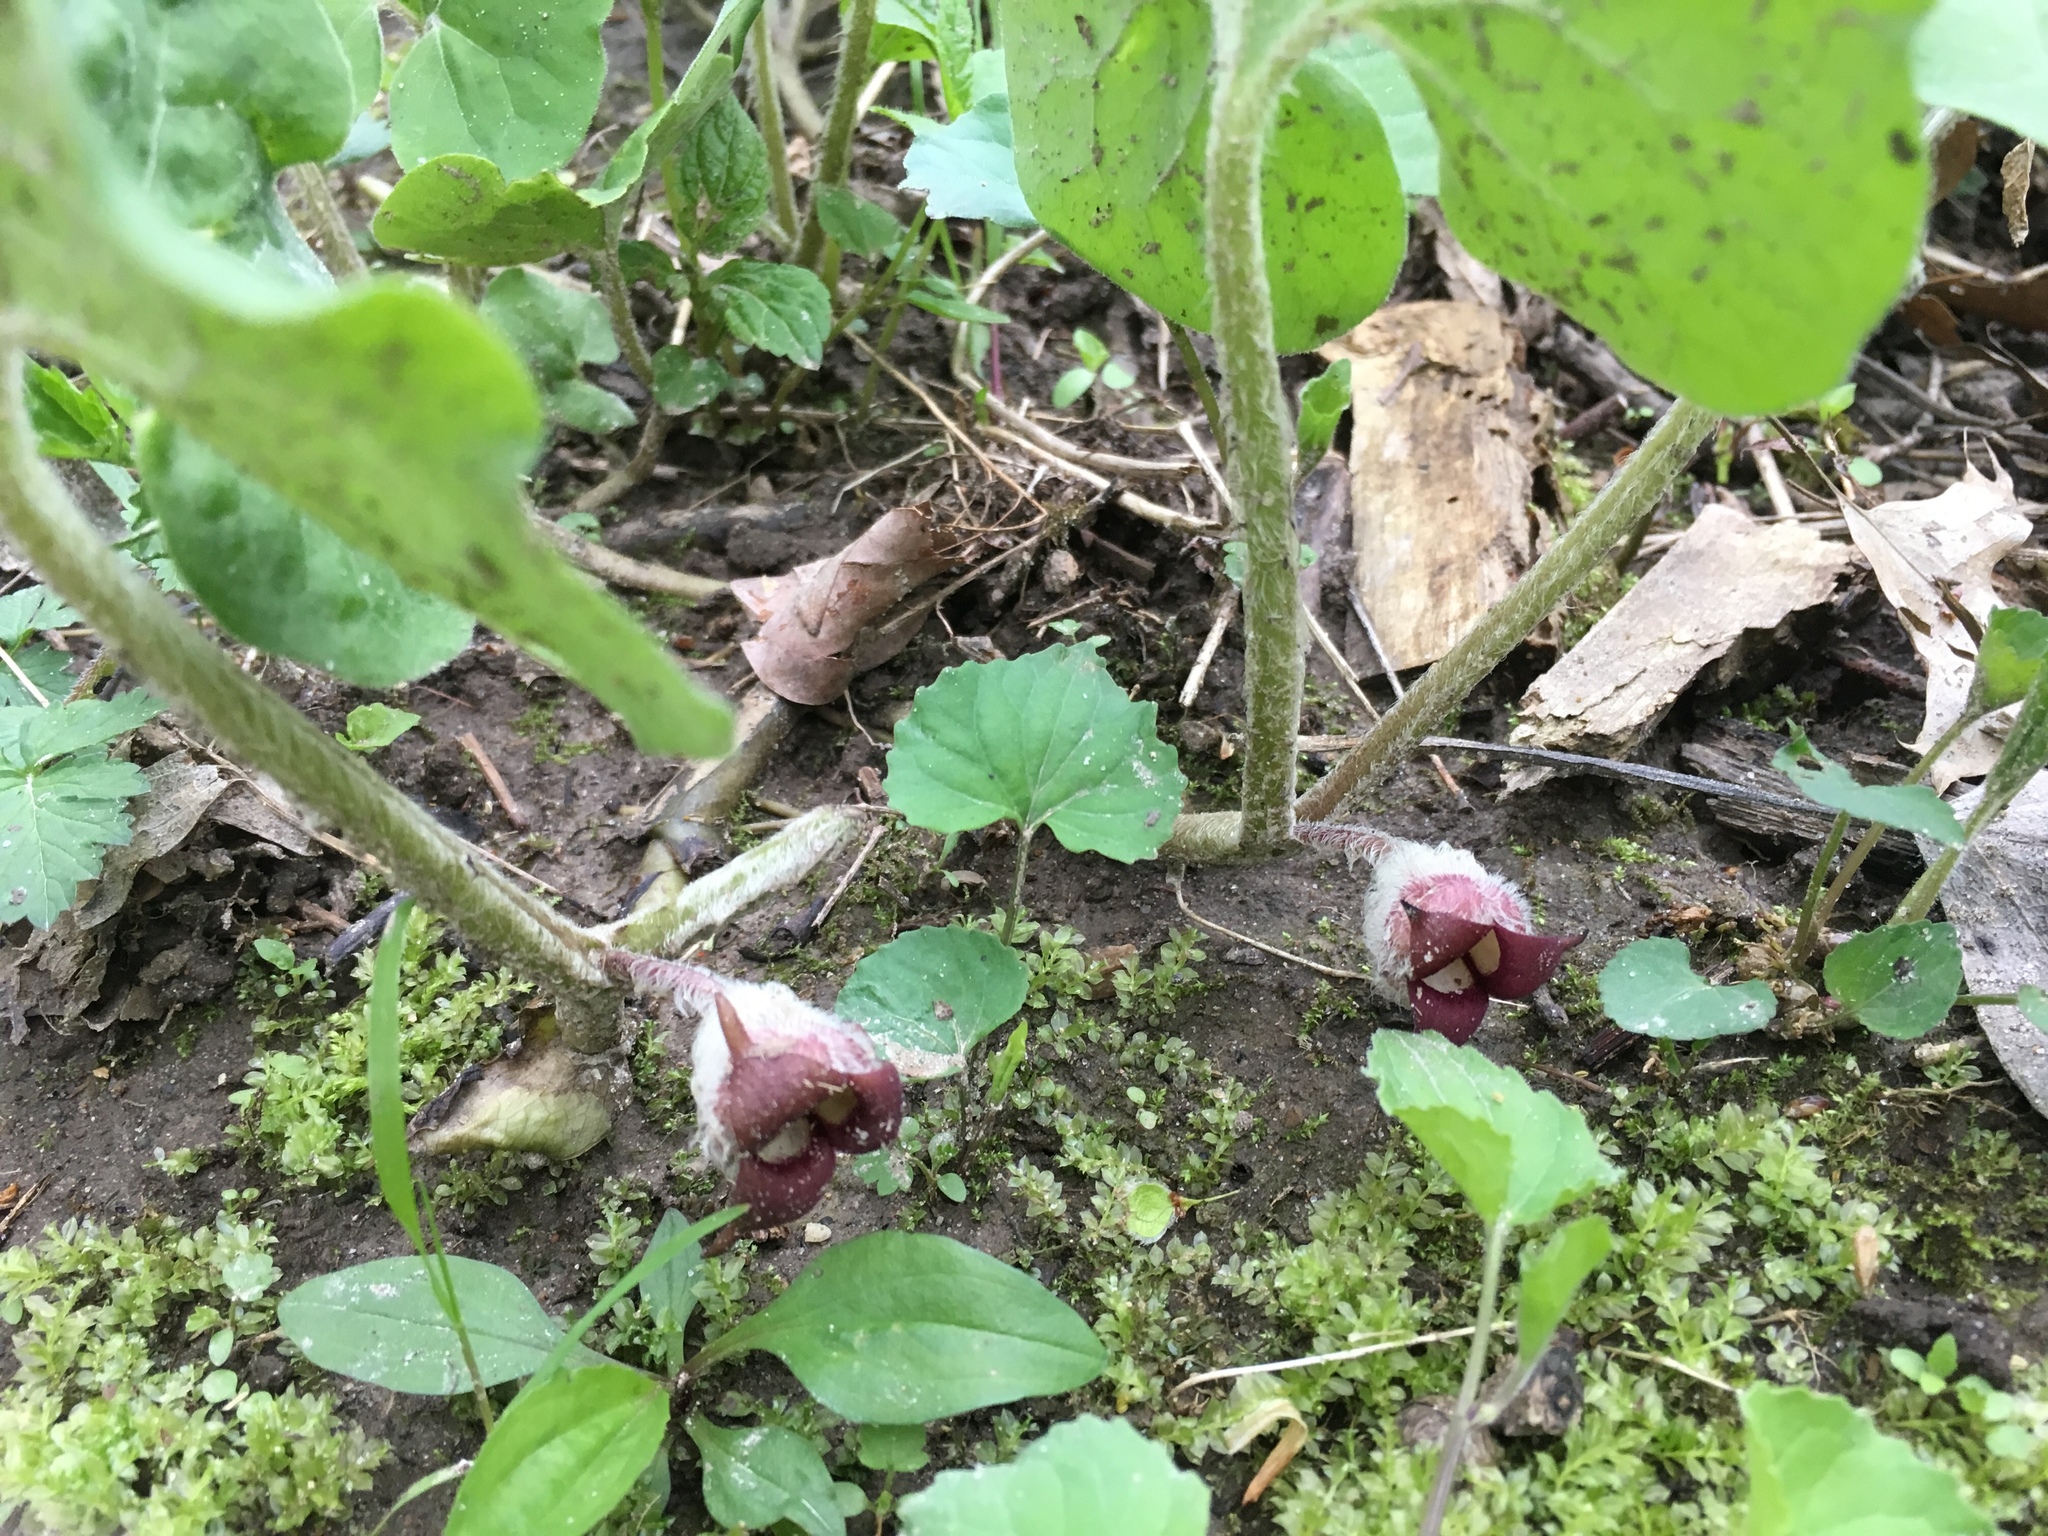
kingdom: Plantae
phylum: Tracheophyta
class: Magnoliopsida
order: Piperales
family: Aristolochiaceae
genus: Asarum
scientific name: Asarum canadense
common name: Wild ginger
